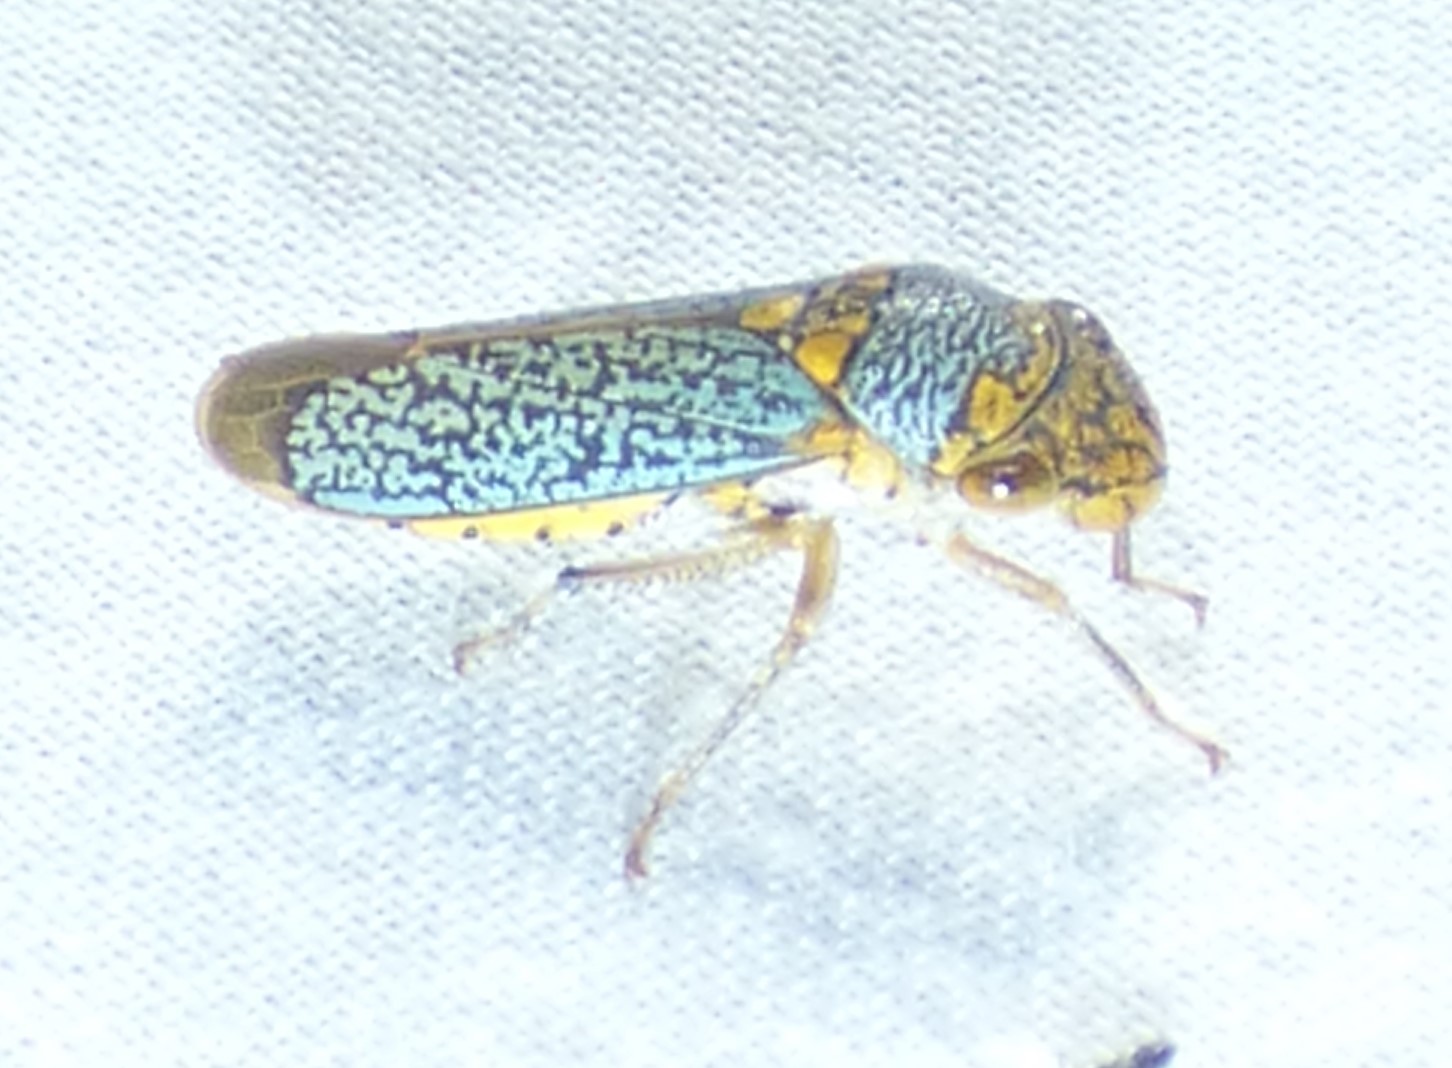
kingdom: Animalia
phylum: Arthropoda
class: Insecta
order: Hemiptera
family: Cicadellidae
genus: Oncometopia
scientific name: Oncometopia orbona
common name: Broad-headed sharpshooter
